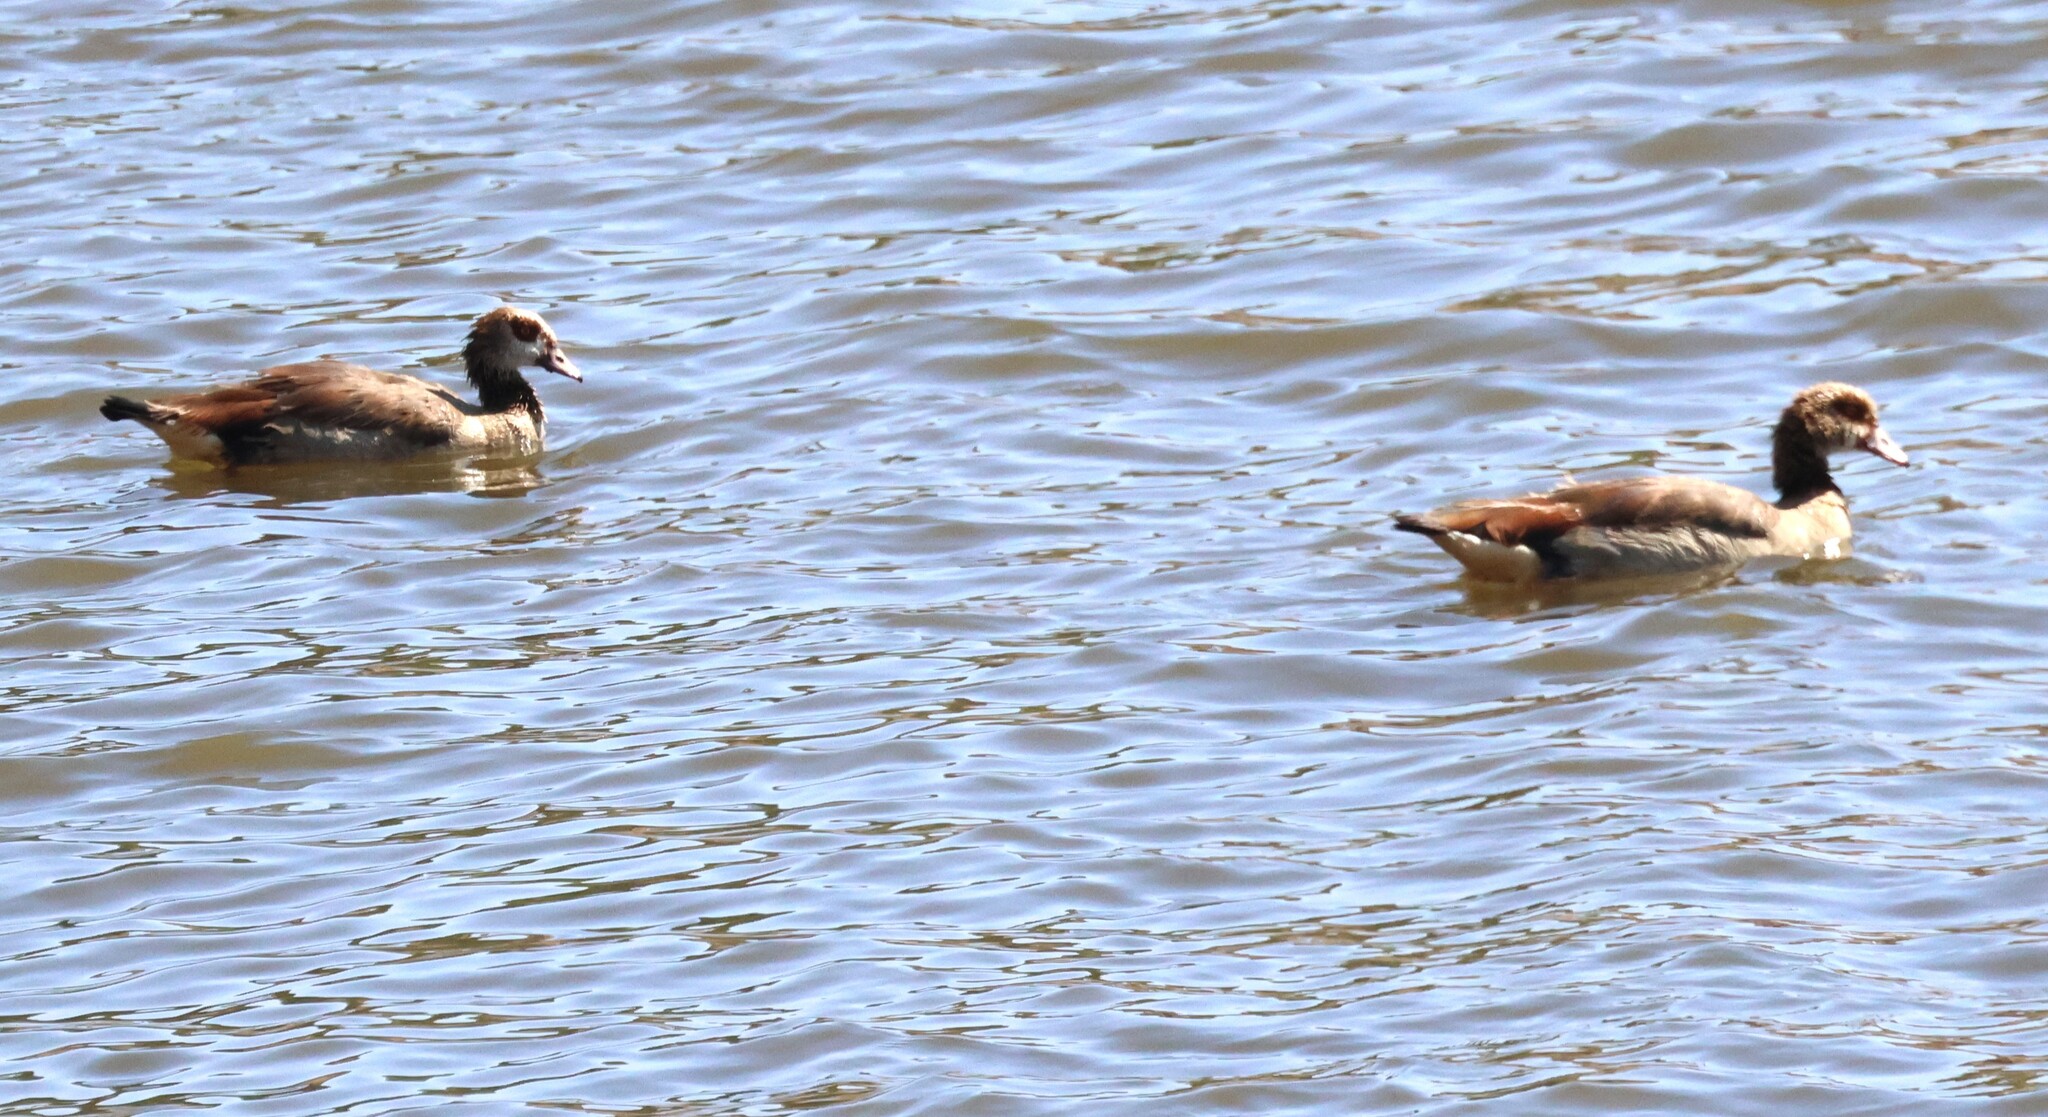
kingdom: Animalia
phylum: Chordata
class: Aves
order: Anseriformes
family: Anatidae
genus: Alopochen
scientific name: Alopochen aegyptiaca
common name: Egyptian goose
